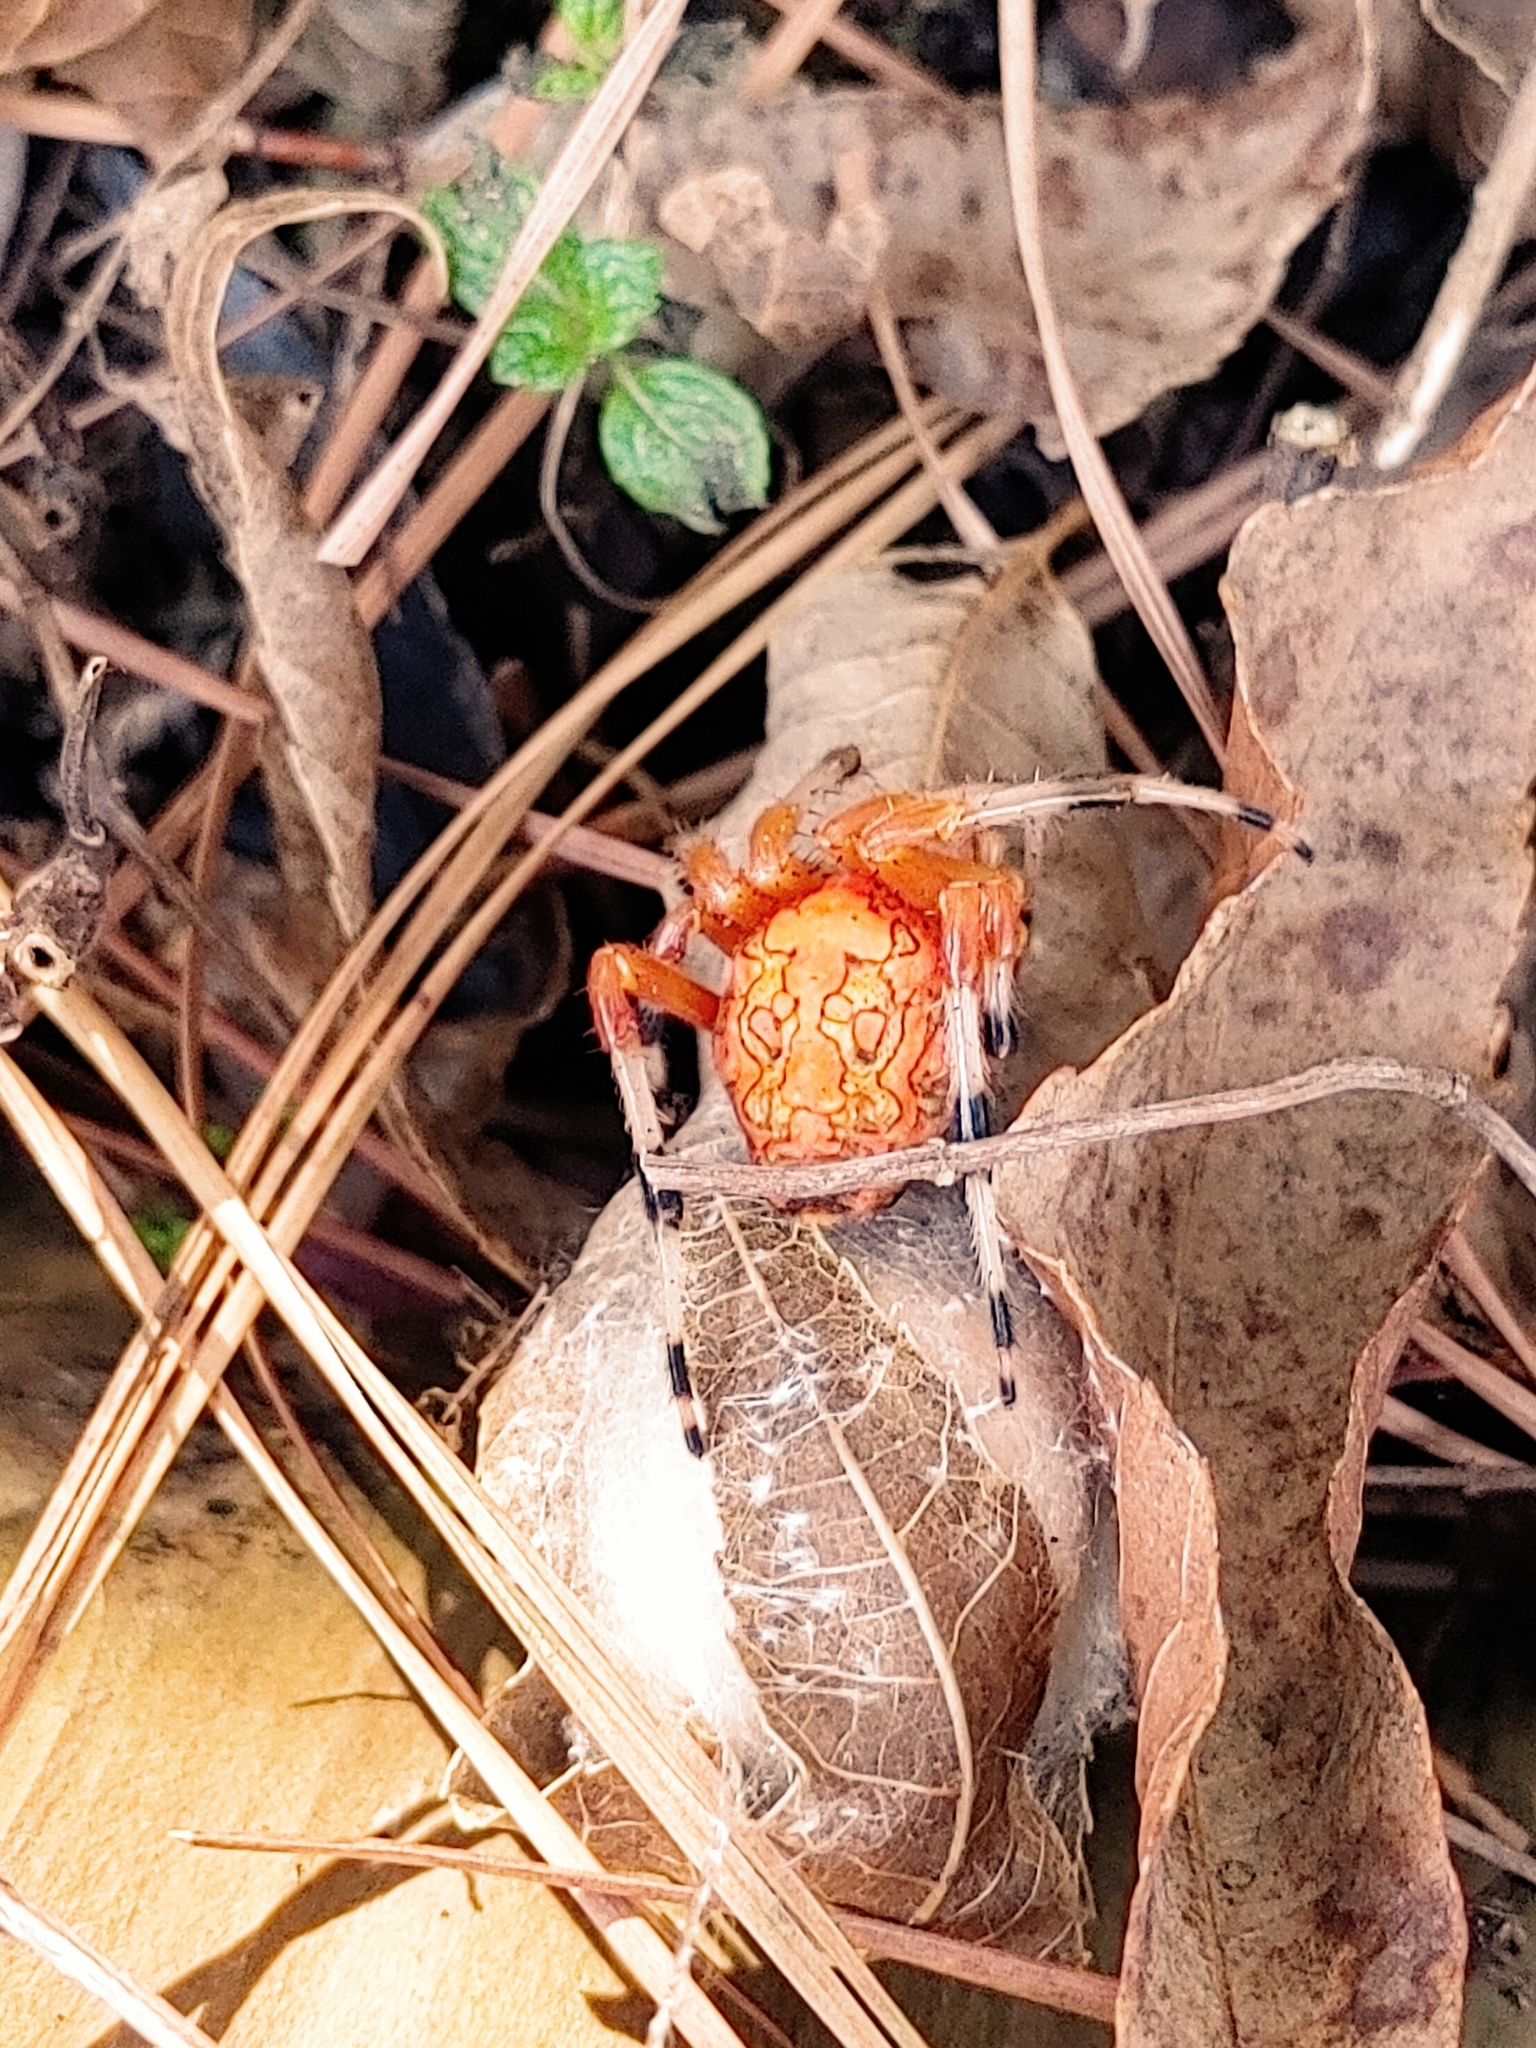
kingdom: Animalia
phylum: Arthropoda
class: Arachnida
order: Araneae
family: Araneidae
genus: Araneus
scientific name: Araneus marmoreus
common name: Marbled orbweaver
